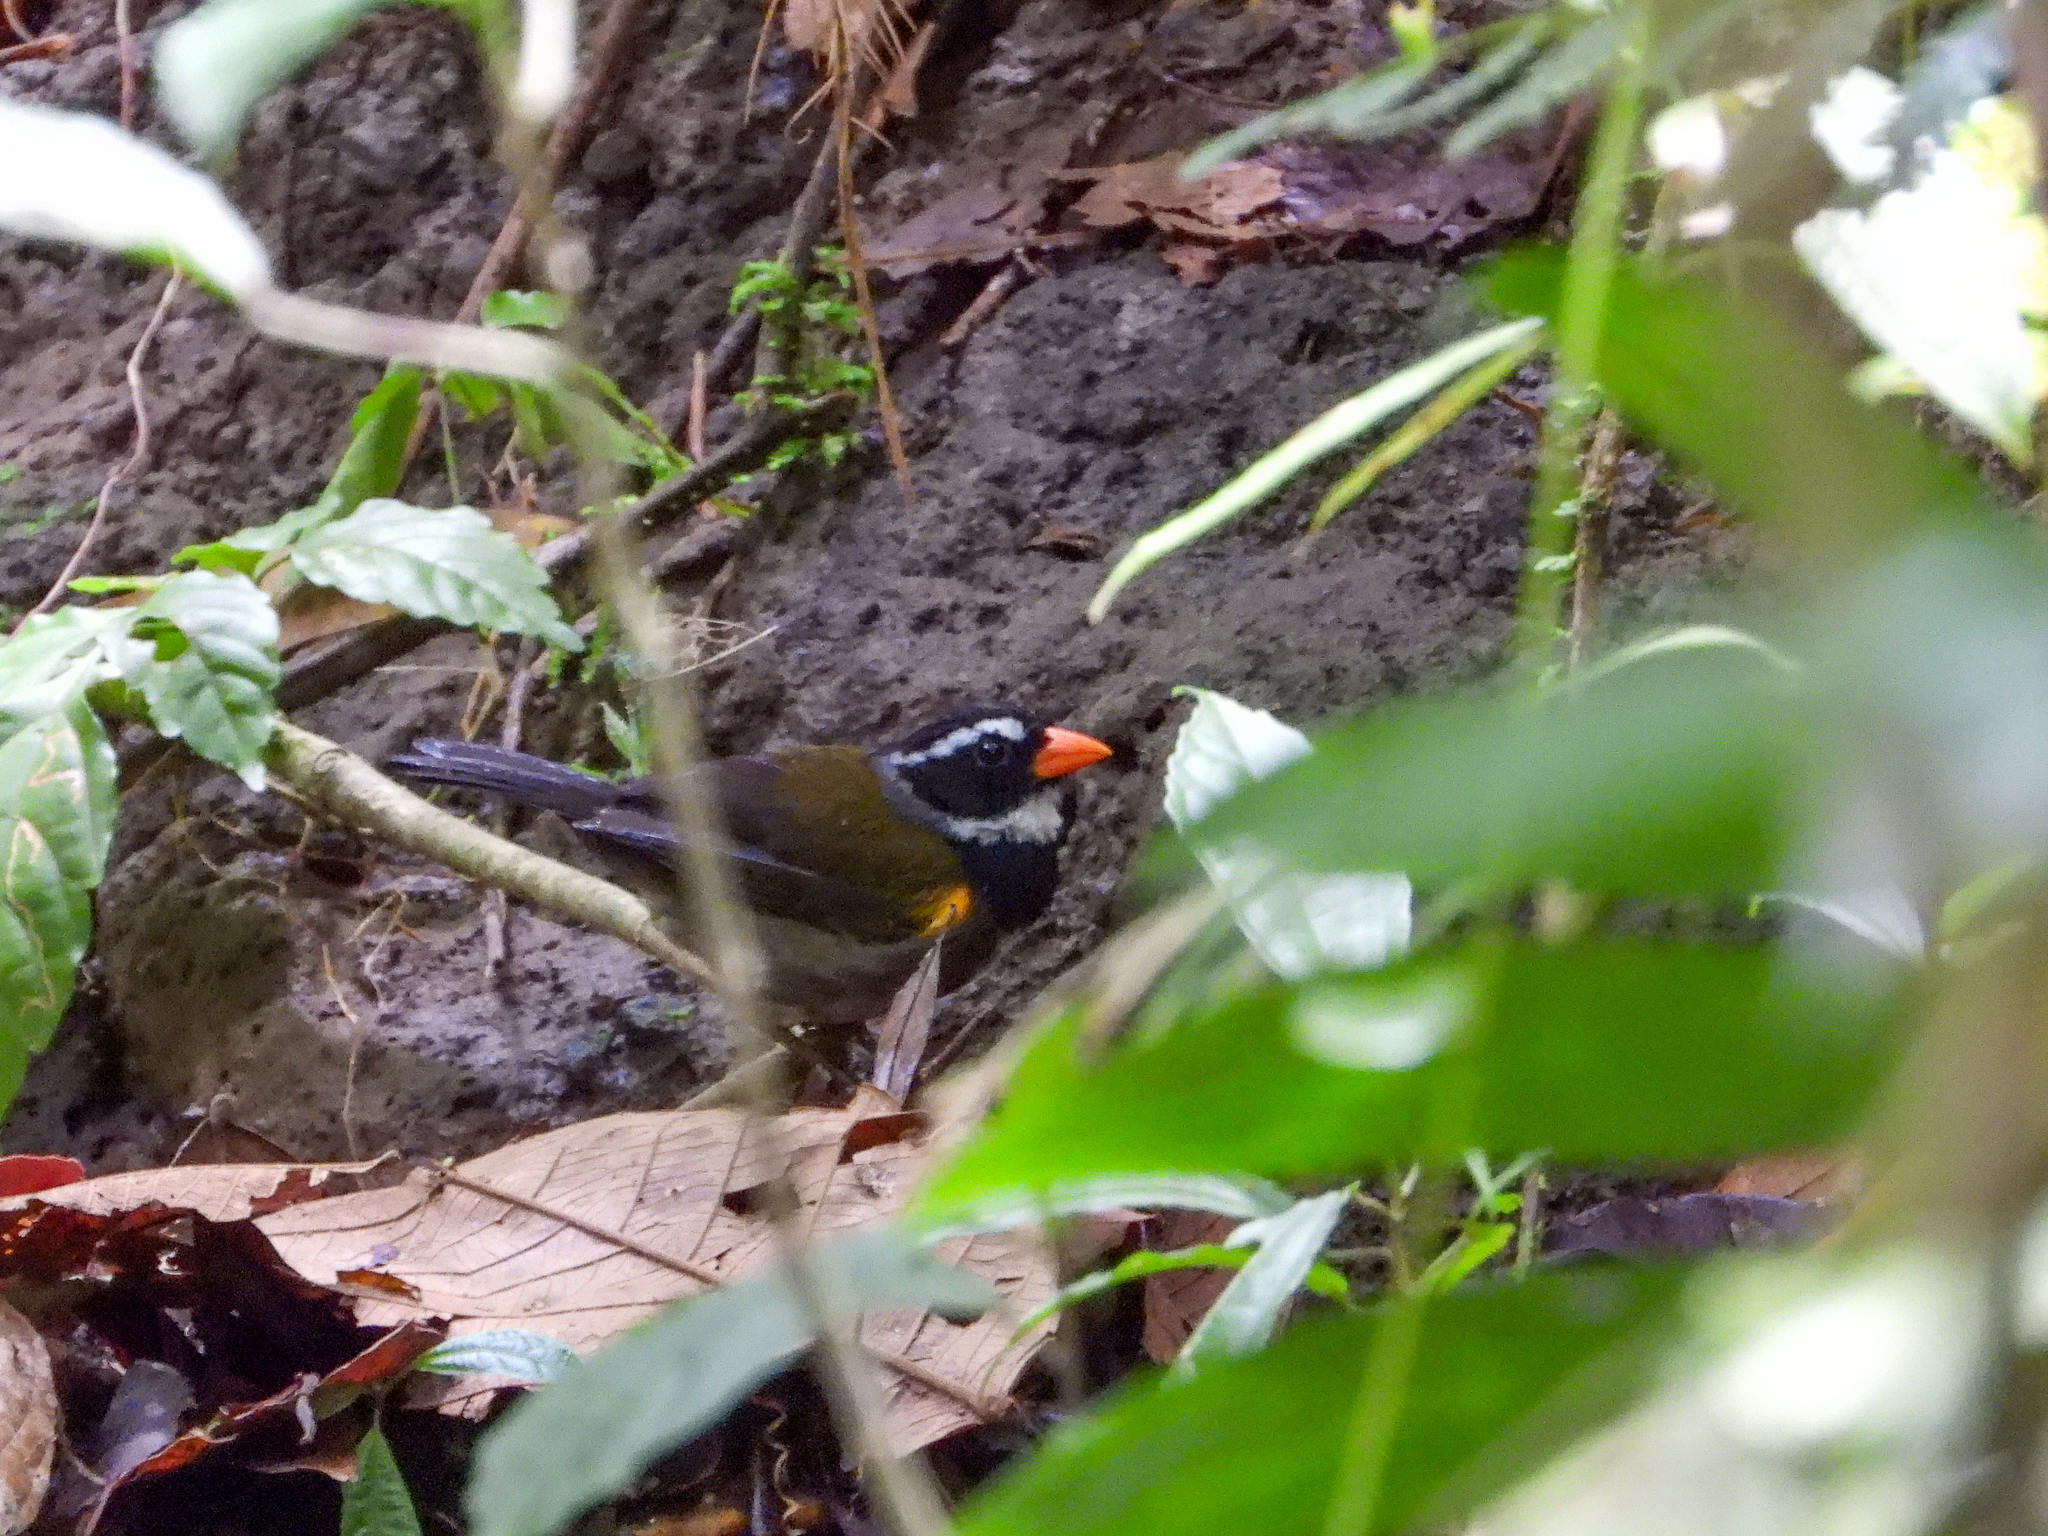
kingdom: Animalia
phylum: Chordata
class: Aves
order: Passeriformes
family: Passerellidae
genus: Arremon
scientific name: Arremon aurantiirostris
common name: Orange-billed sparrow
